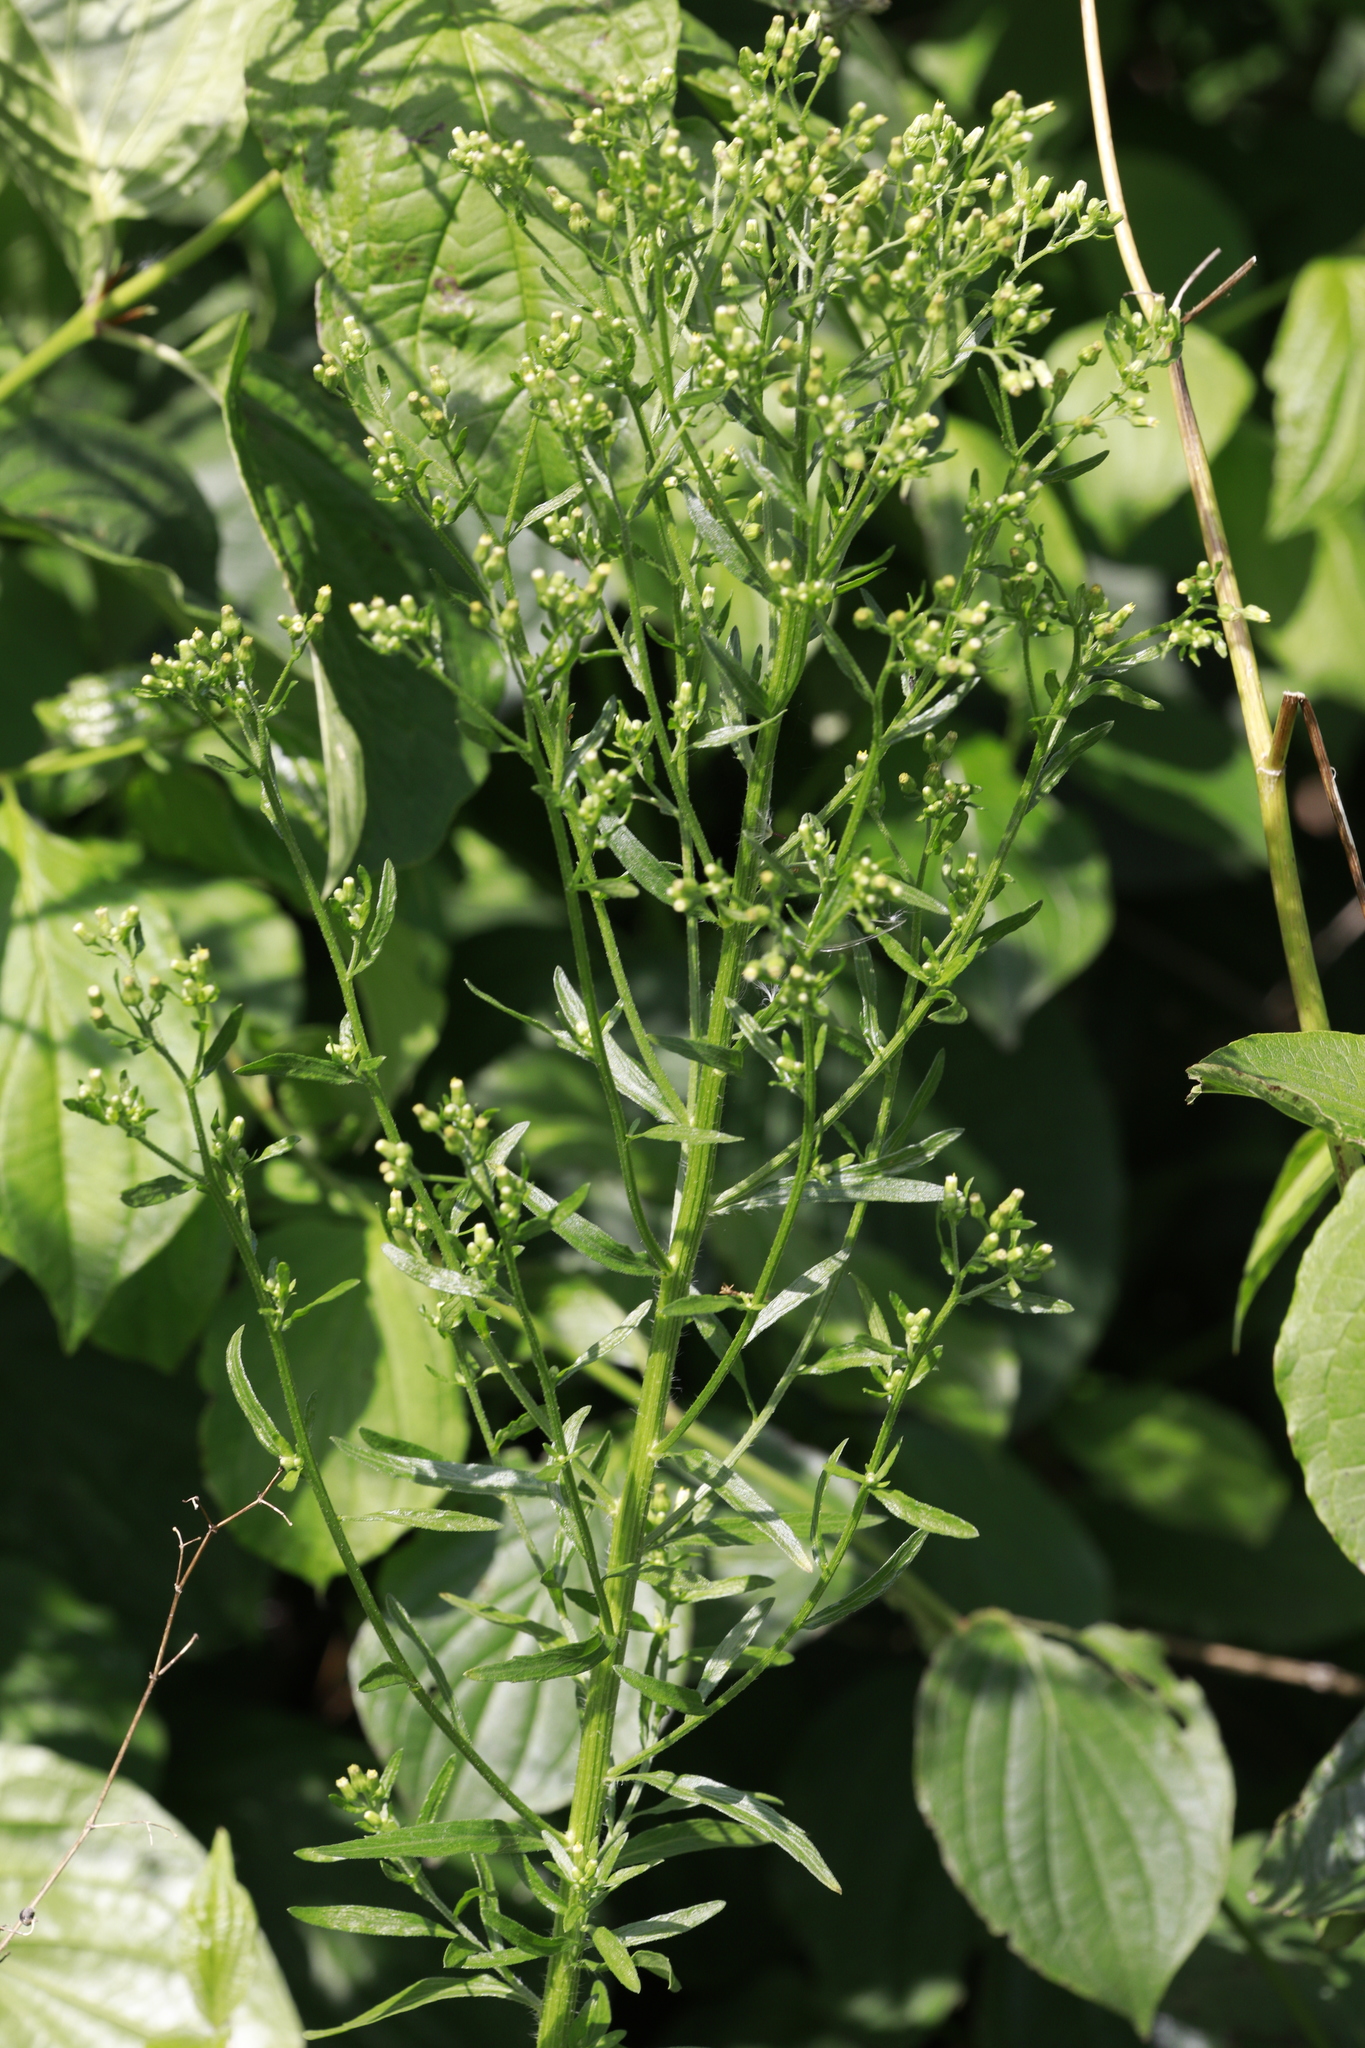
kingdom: Plantae
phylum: Tracheophyta
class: Magnoliopsida
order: Asterales
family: Asteraceae
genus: Erigeron
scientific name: Erigeron canadensis
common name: Canadian fleabane
